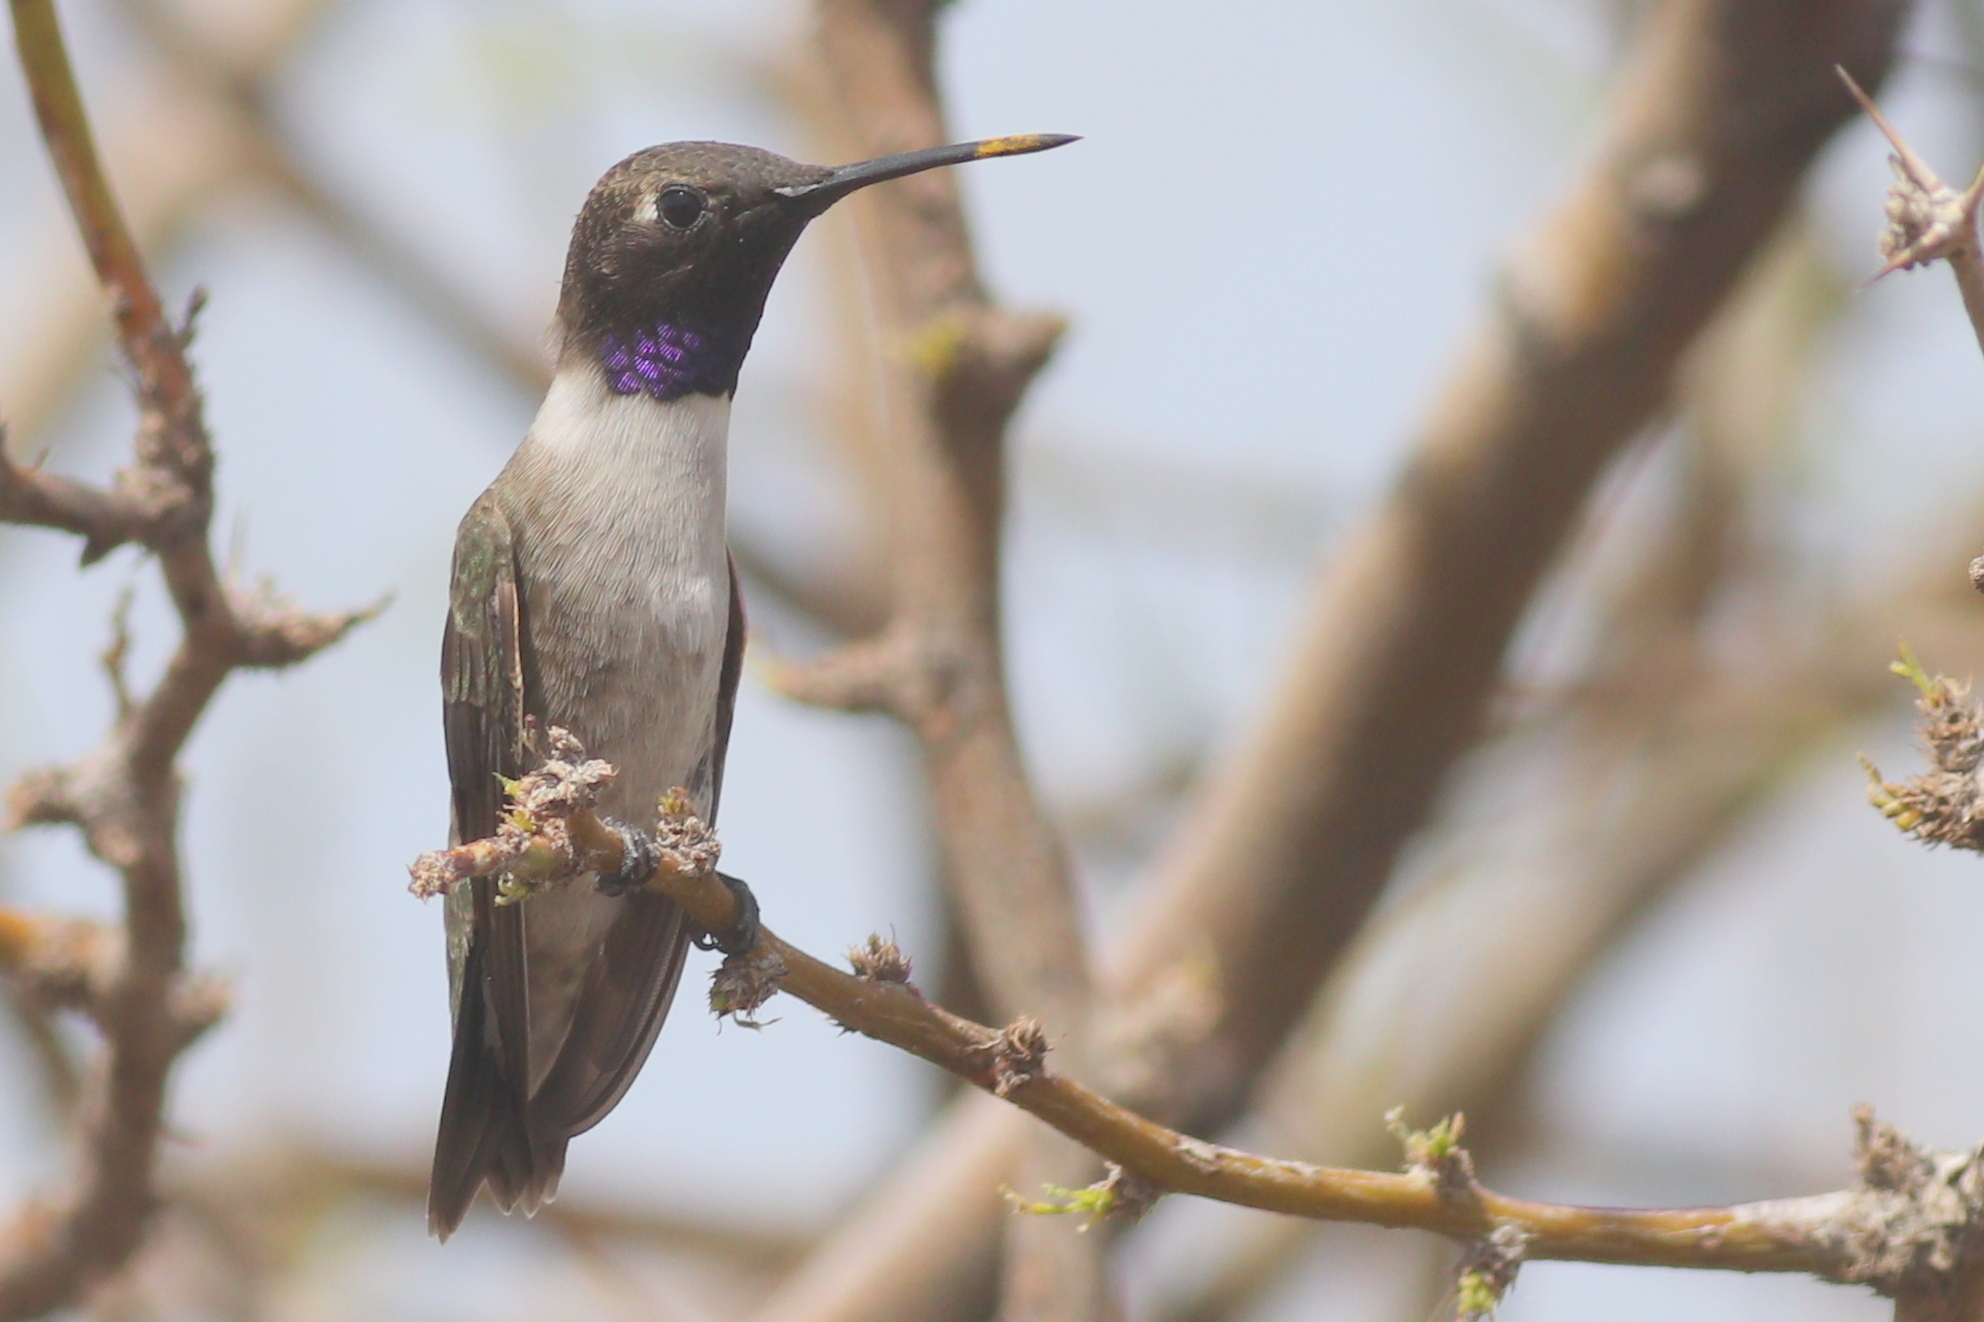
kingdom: Animalia
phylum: Chordata
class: Aves
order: Apodiformes
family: Trochilidae
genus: Archilochus
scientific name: Archilochus alexandri
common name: Black-chinned hummingbird
